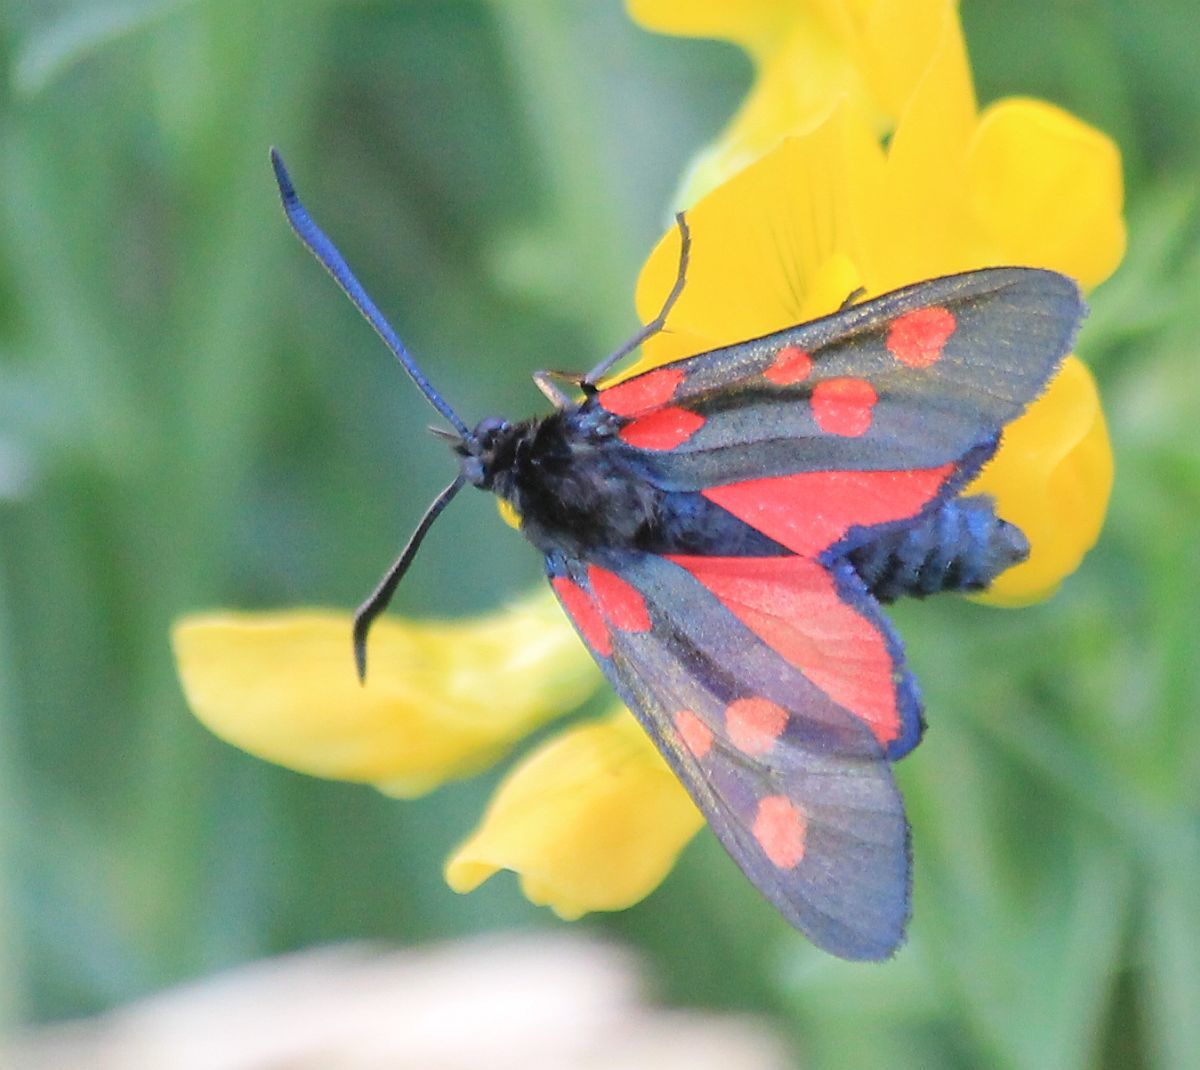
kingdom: Animalia
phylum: Arthropoda
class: Insecta
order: Lepidoptera
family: Zygaenidae
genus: Zygaena
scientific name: Zygaena lonicerae
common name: Narrow-bordered five-spot burnet
